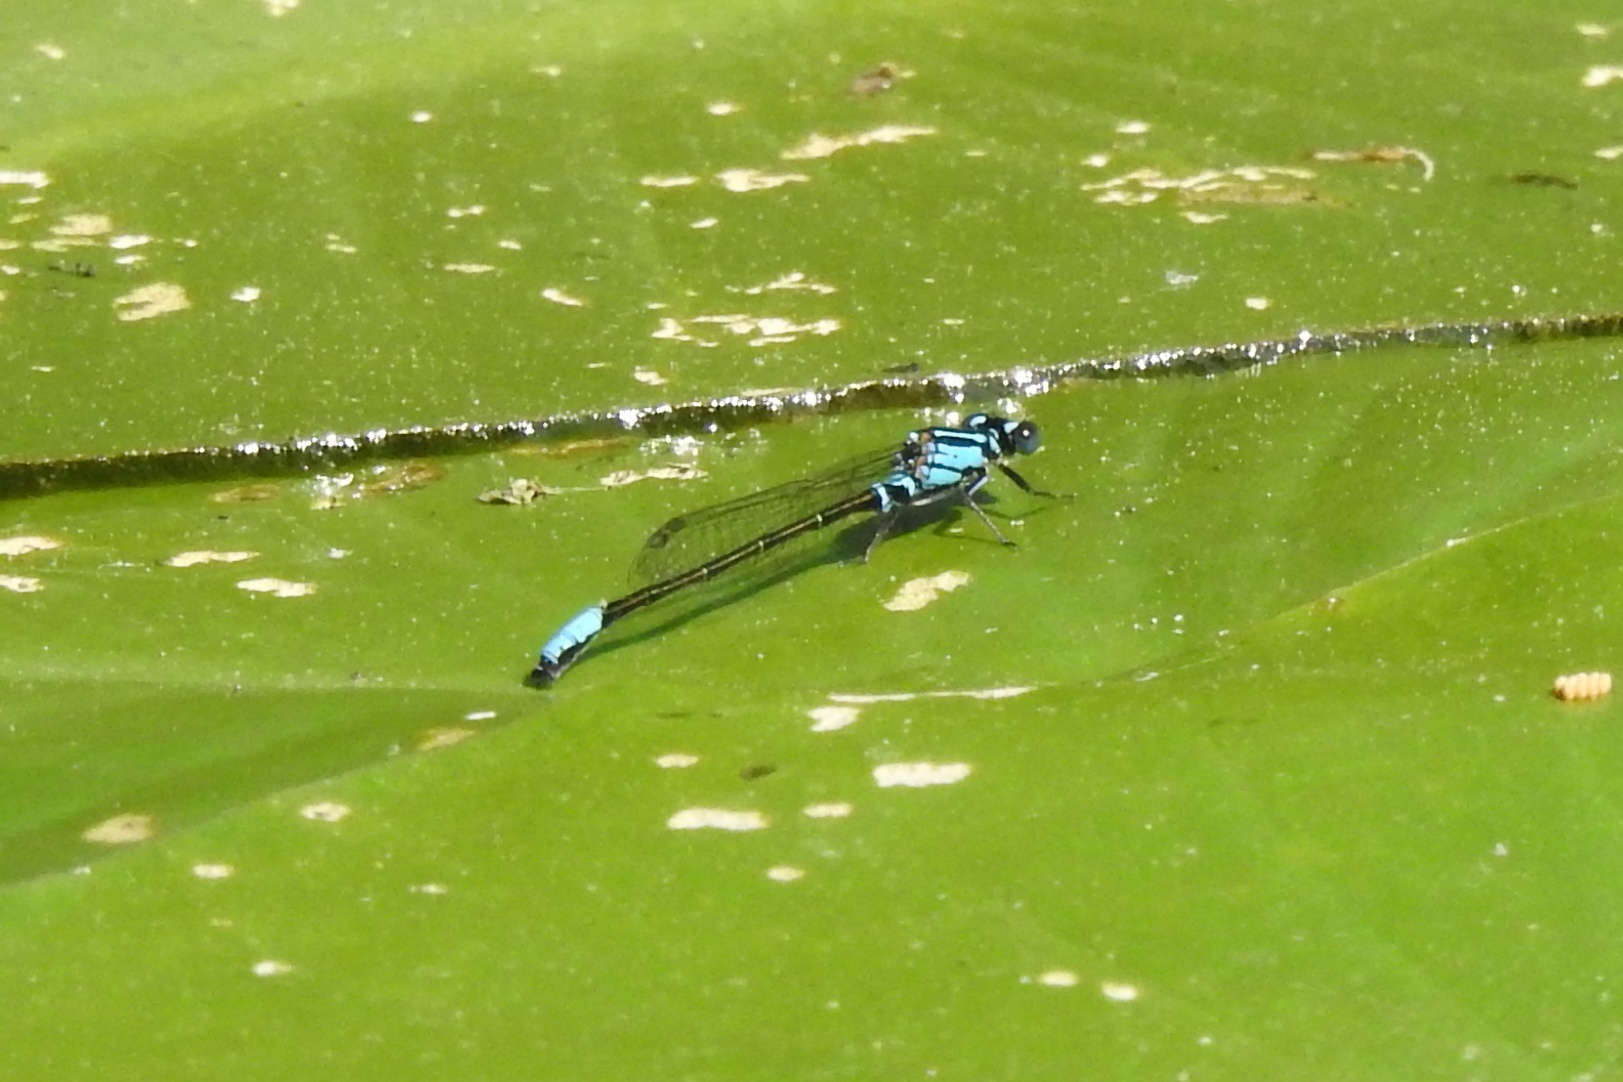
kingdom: Animalia
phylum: Arthropoda
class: Insecta
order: Odonata
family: Coenagrionidae
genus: Ischnura
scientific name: Ischnura kellicotti
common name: Lilypad forktail
